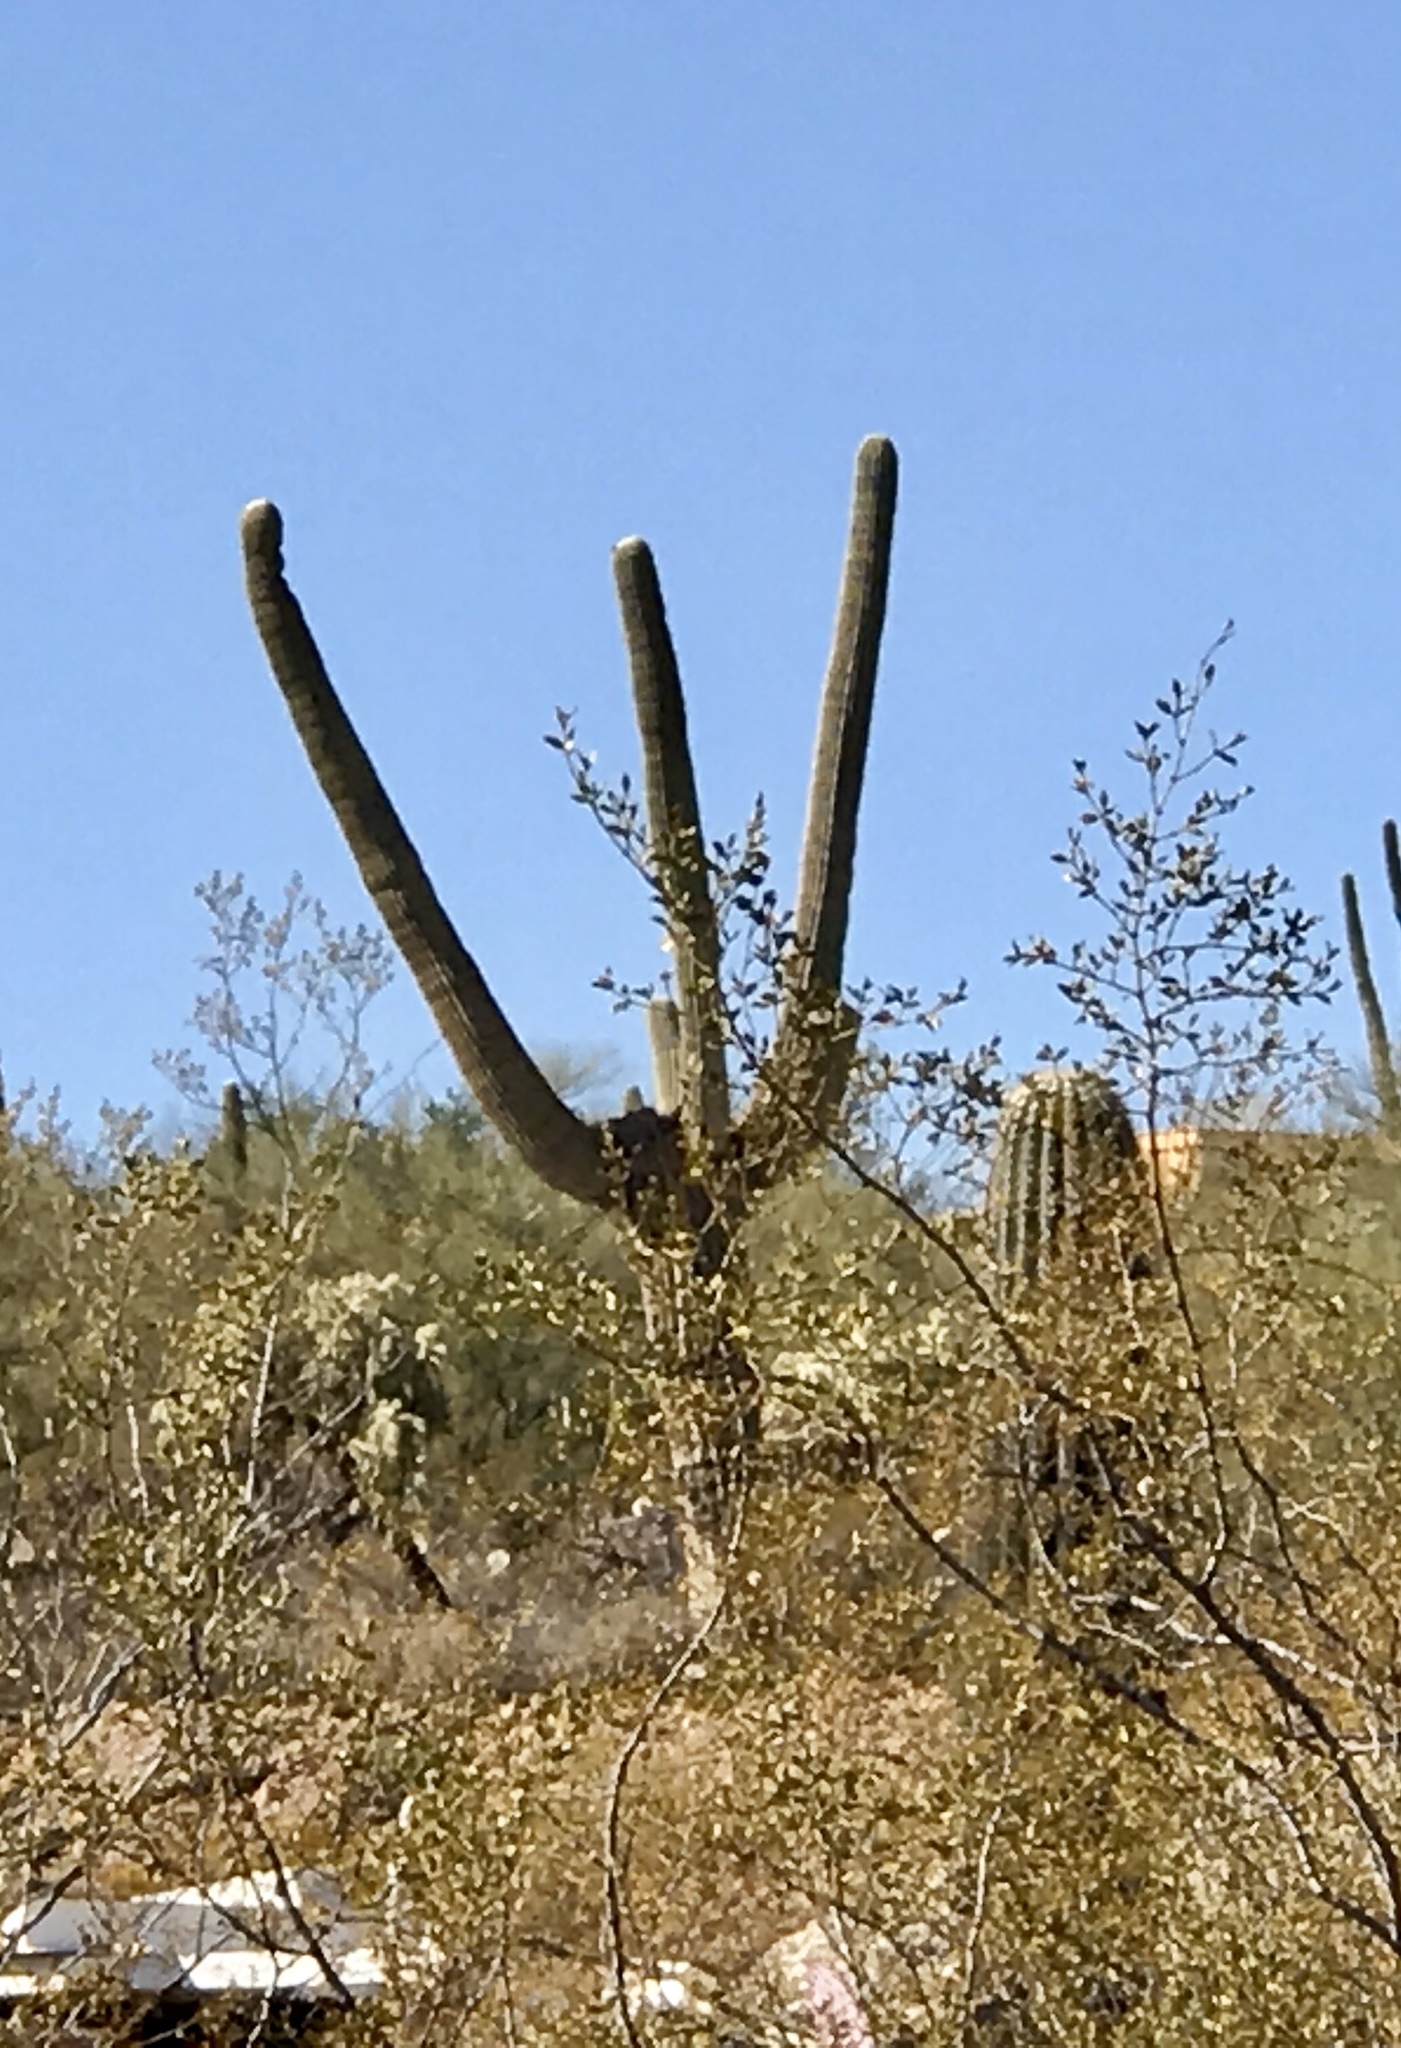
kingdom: Plantae
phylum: Tracheophyta
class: Magnoliopsida
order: Caryophyllales
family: Cactaceae
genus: Carnegiea
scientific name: Carnegiea gigantea
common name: Saguaro
